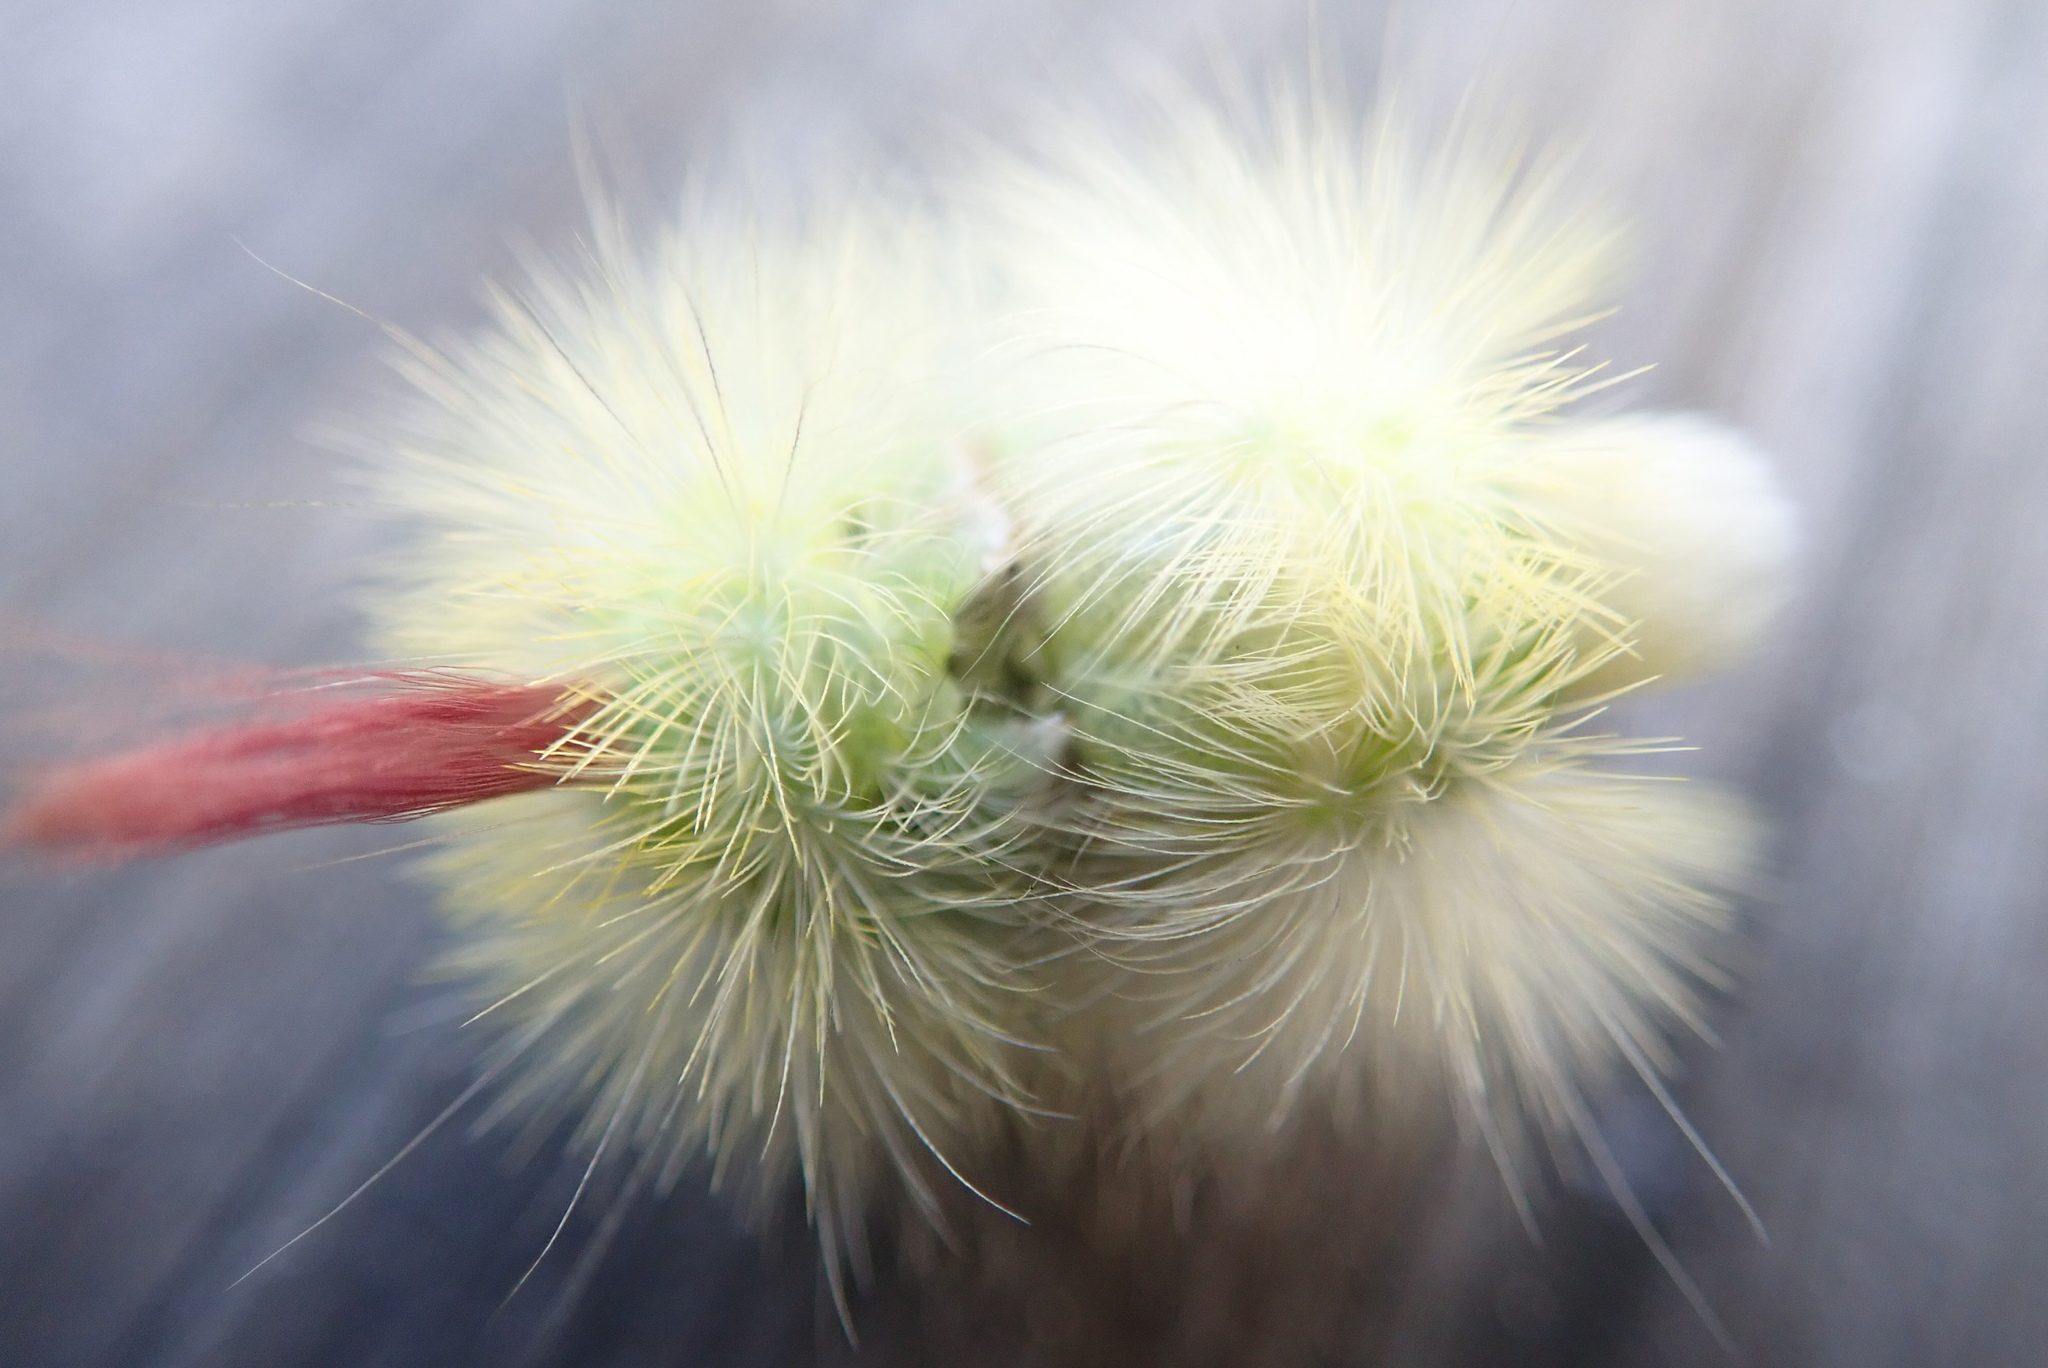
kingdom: Animalia
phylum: Arthropoda
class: Insecta
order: Lepidoptera
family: Erebidae
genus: Calliteara
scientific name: Calliteara pudibunda
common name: Pale tussock
